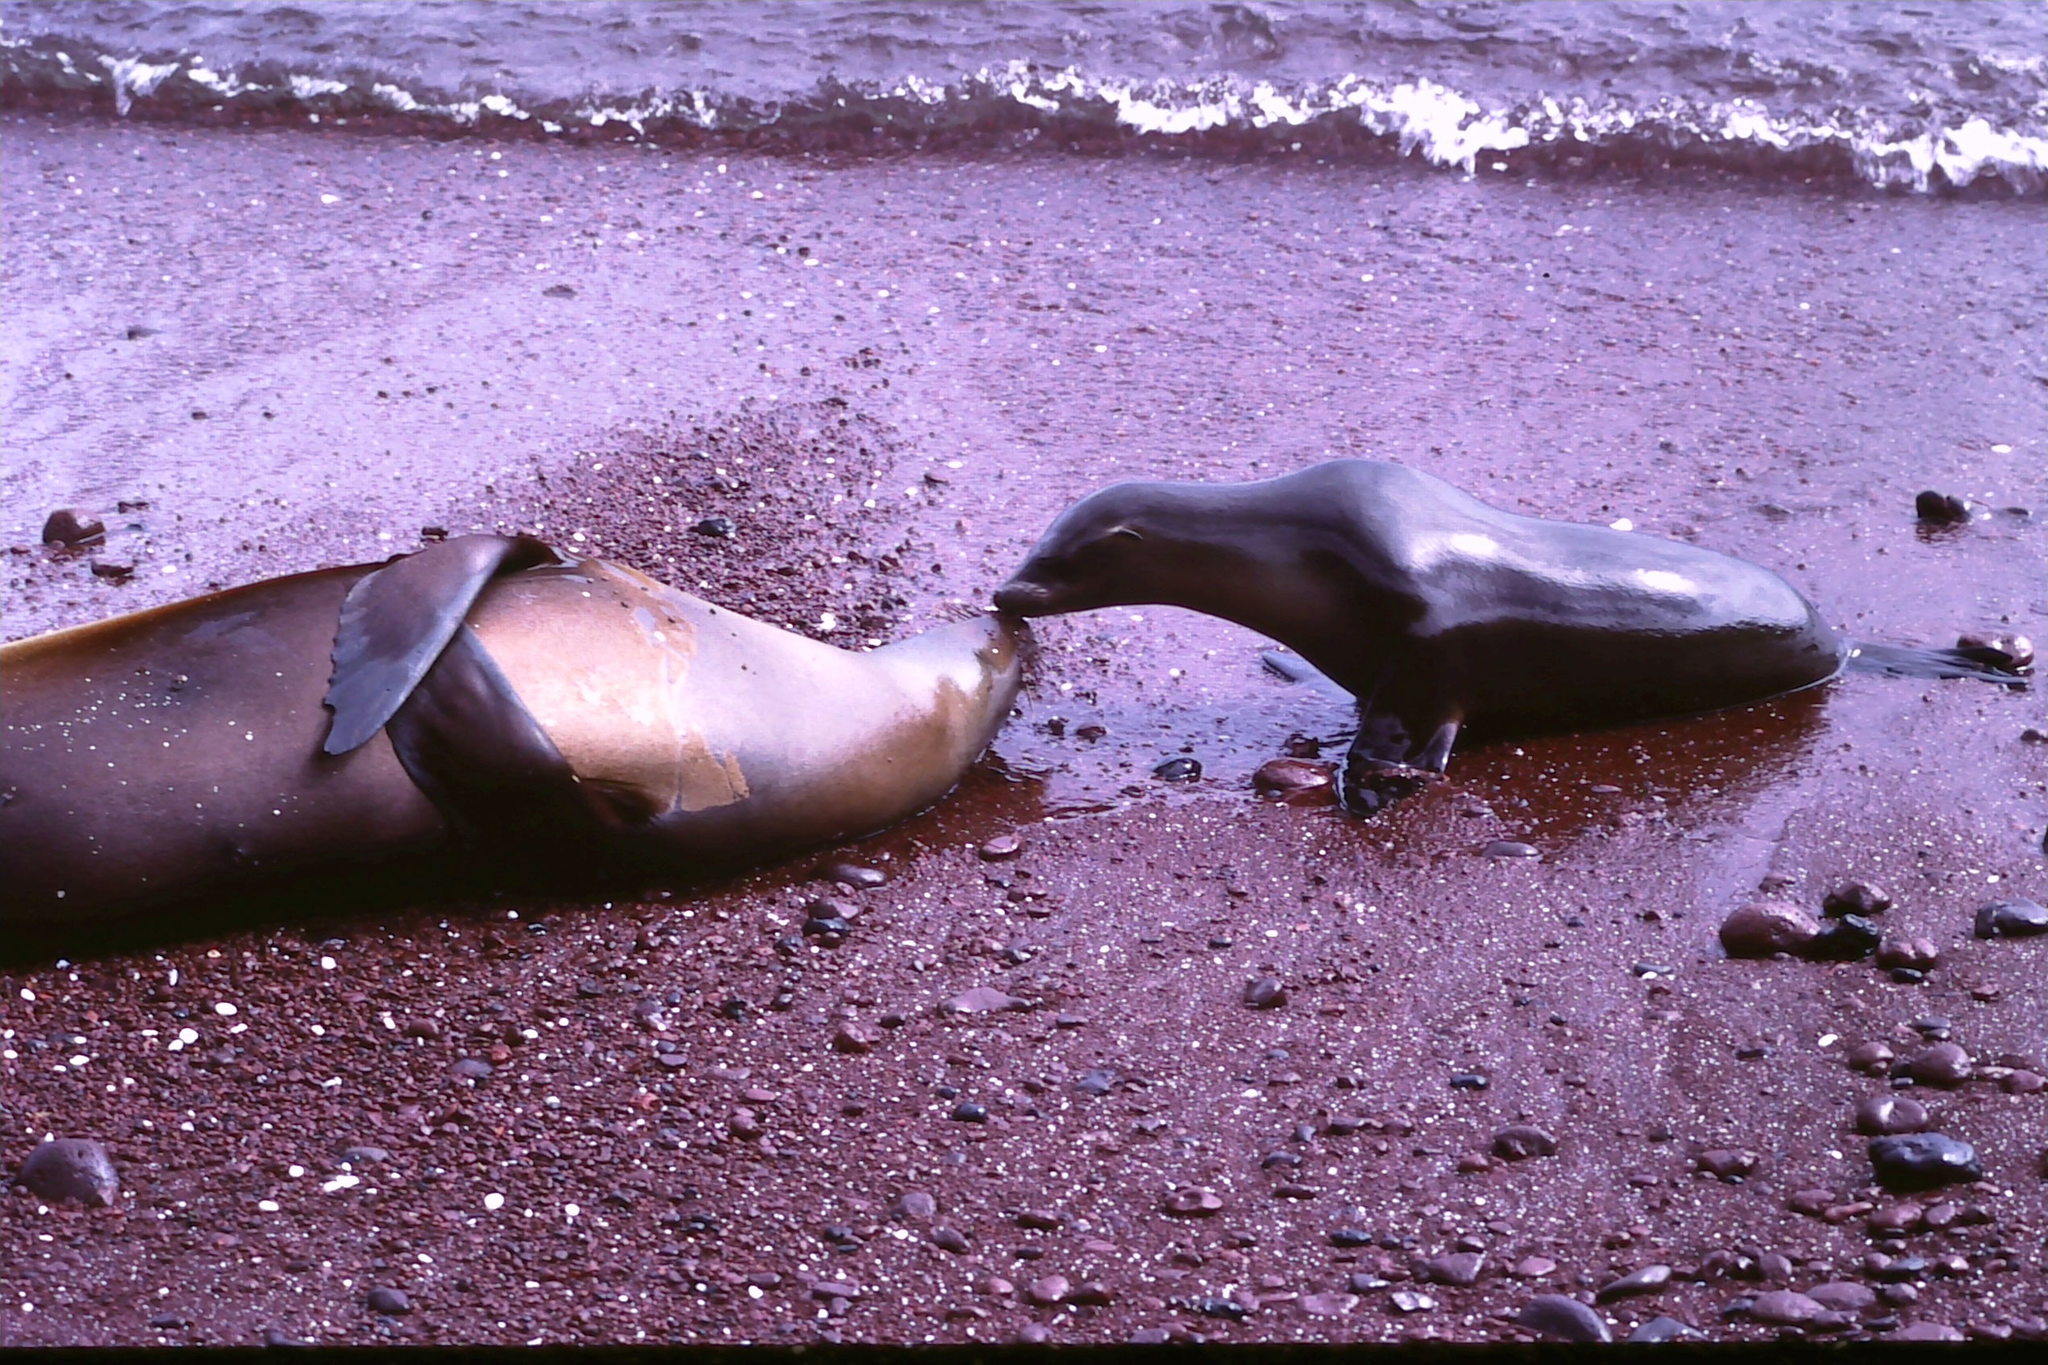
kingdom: Animalia
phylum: Chordata
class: Mammalia
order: Carnivora
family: Otariidae
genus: Zalophus
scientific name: Zalophus wollebaeki
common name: Galapagos sea lion
